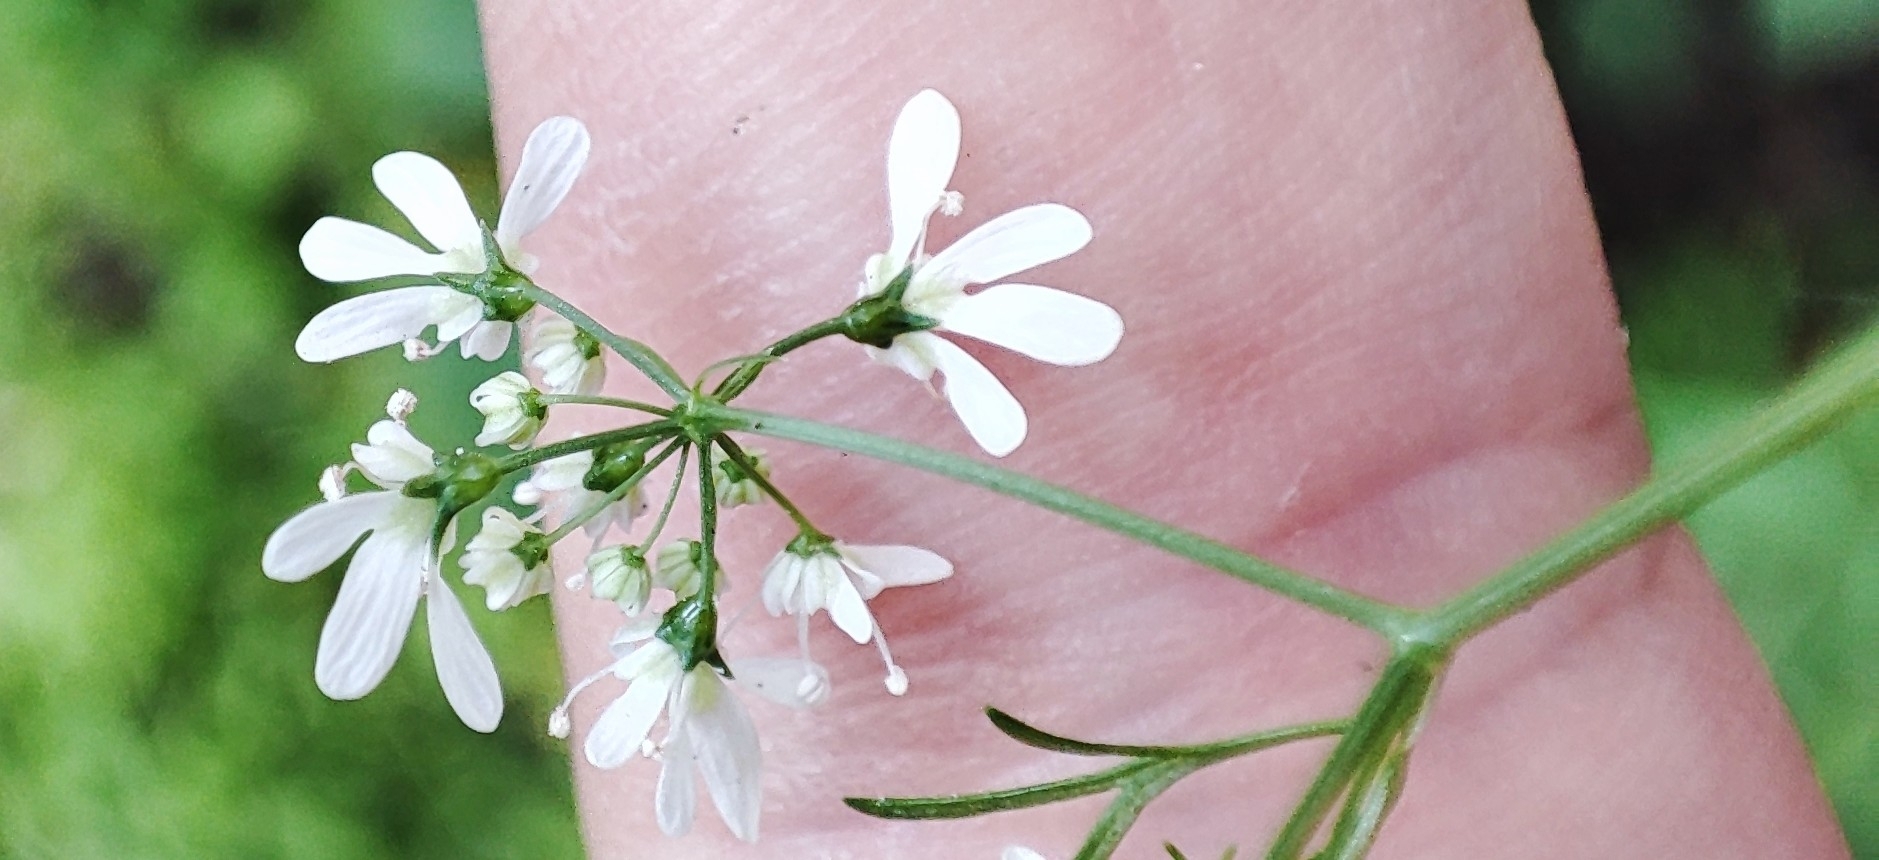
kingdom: Plantae
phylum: Tracheophyta
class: Magnoliopsida
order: Apiales
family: Apiaceae
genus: Coriandrum
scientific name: Coriandrum sativum
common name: Coriander
